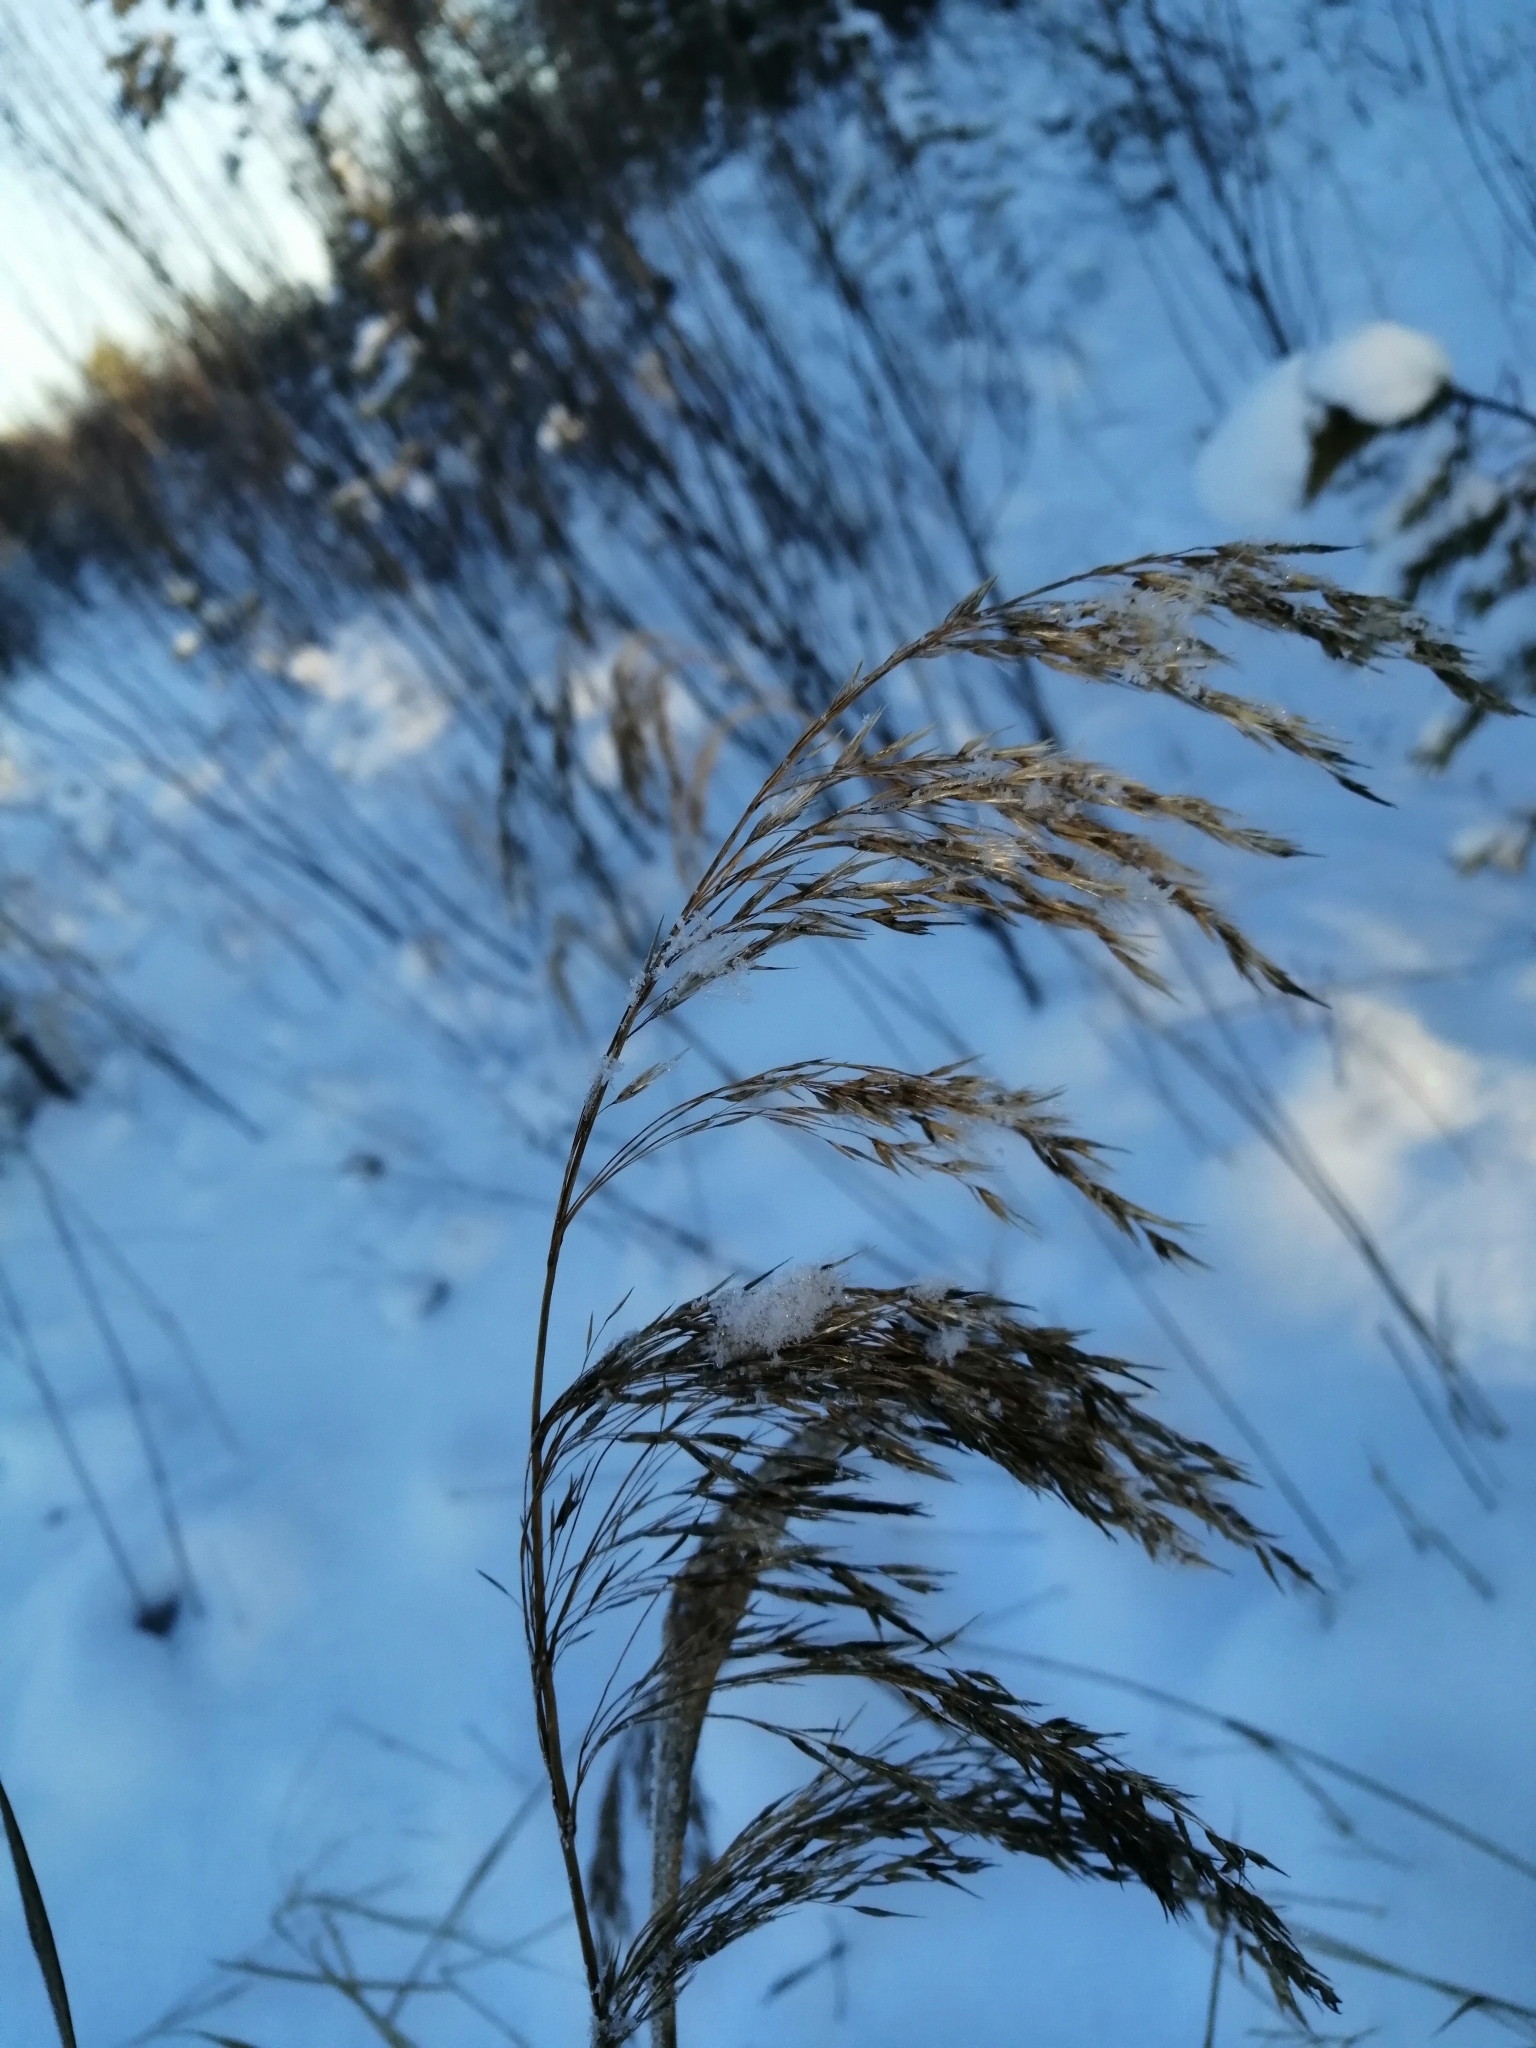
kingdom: Plantae
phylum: Tracheophyta
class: Liliopsida
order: Poales
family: Poaceae
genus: Phragmites
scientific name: Phragmites australis
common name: Common reed
